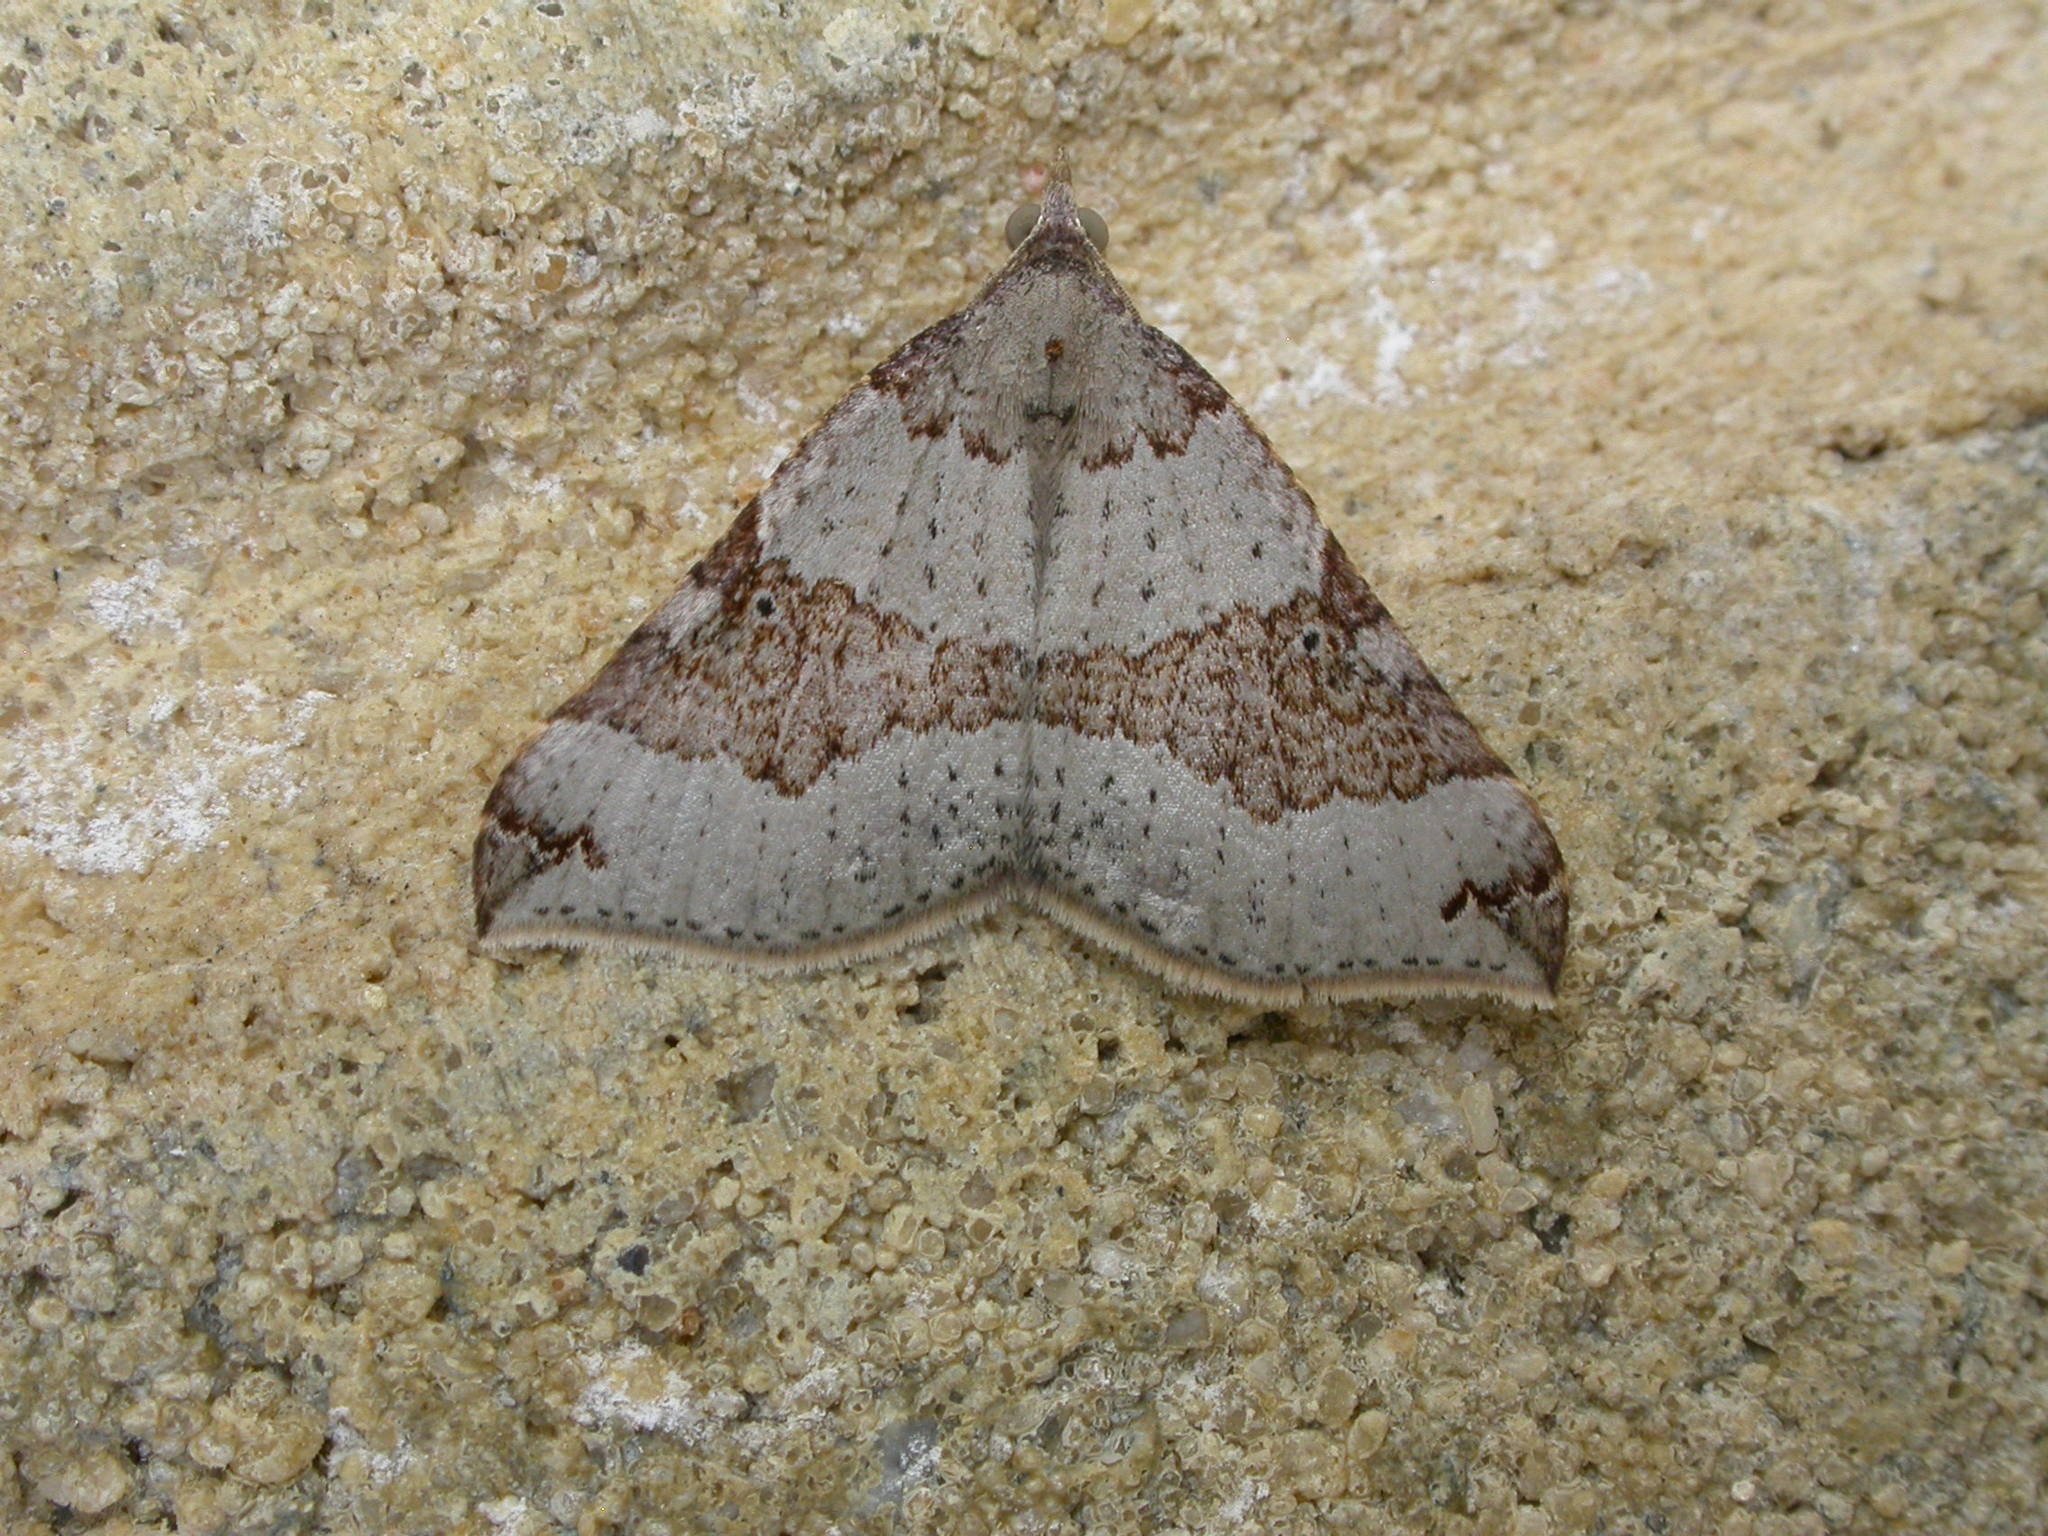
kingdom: Animalia
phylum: Arthropoda
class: Insecta
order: Lepidoptera
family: Geometridae
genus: Anachloris
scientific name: Anachloris uncinata
